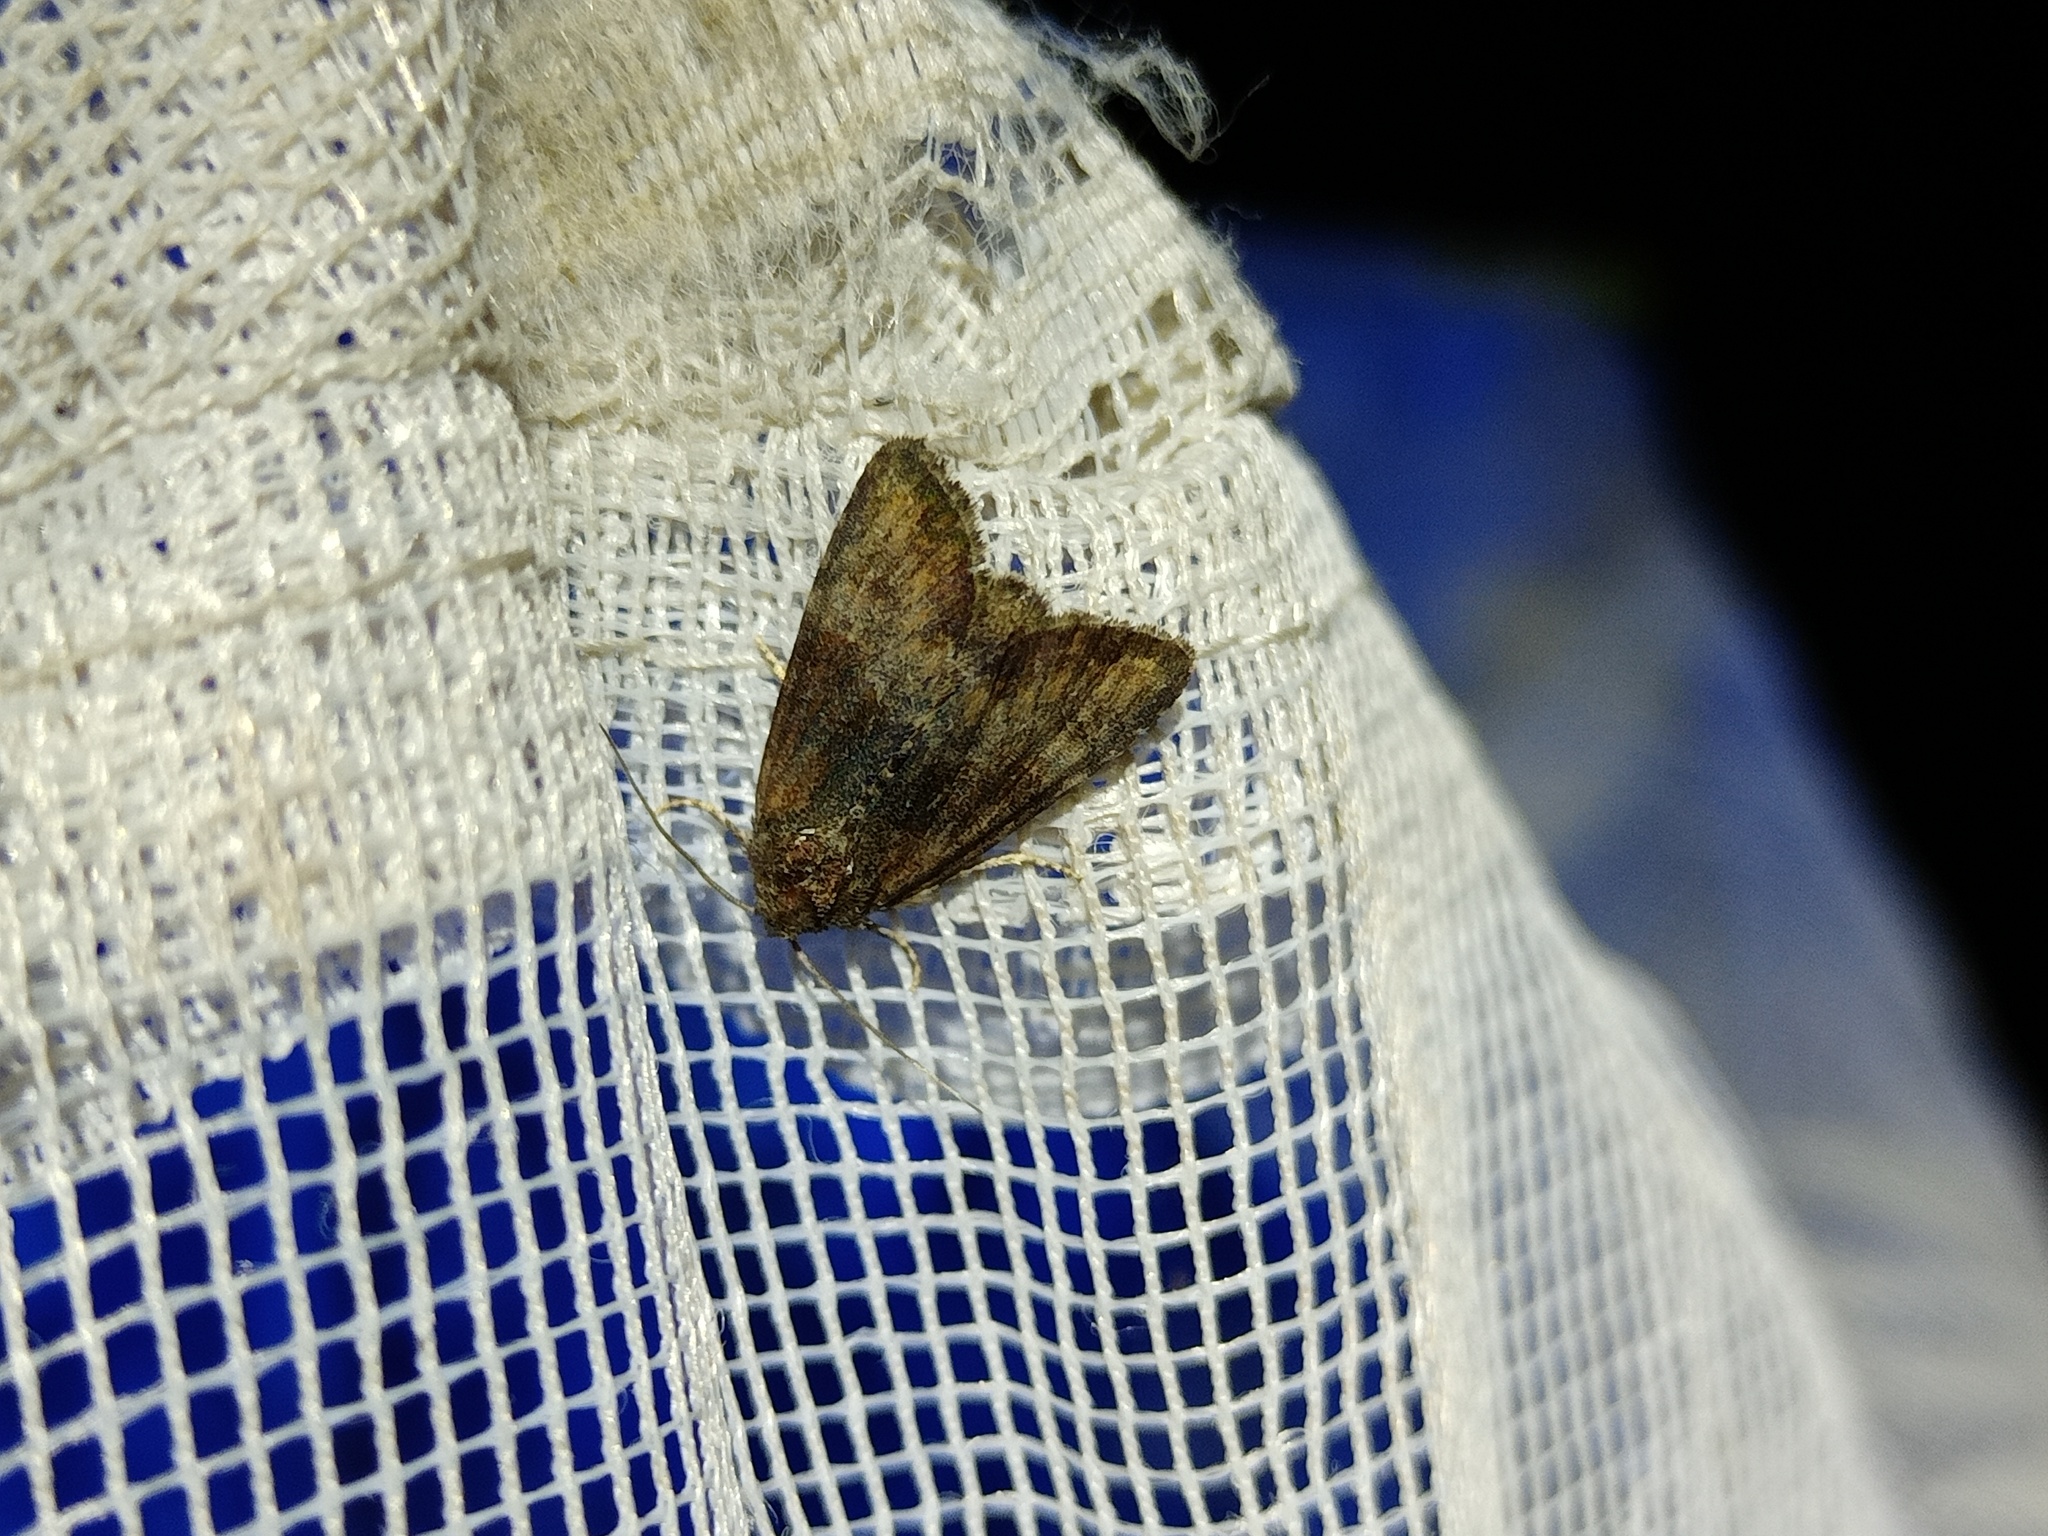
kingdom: Animalia
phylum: Arthropoda
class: Insecta
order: Lepidoptera
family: Noctuidae
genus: Mesoligia
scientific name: Mesoligia furuncula
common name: Cloaked minor
